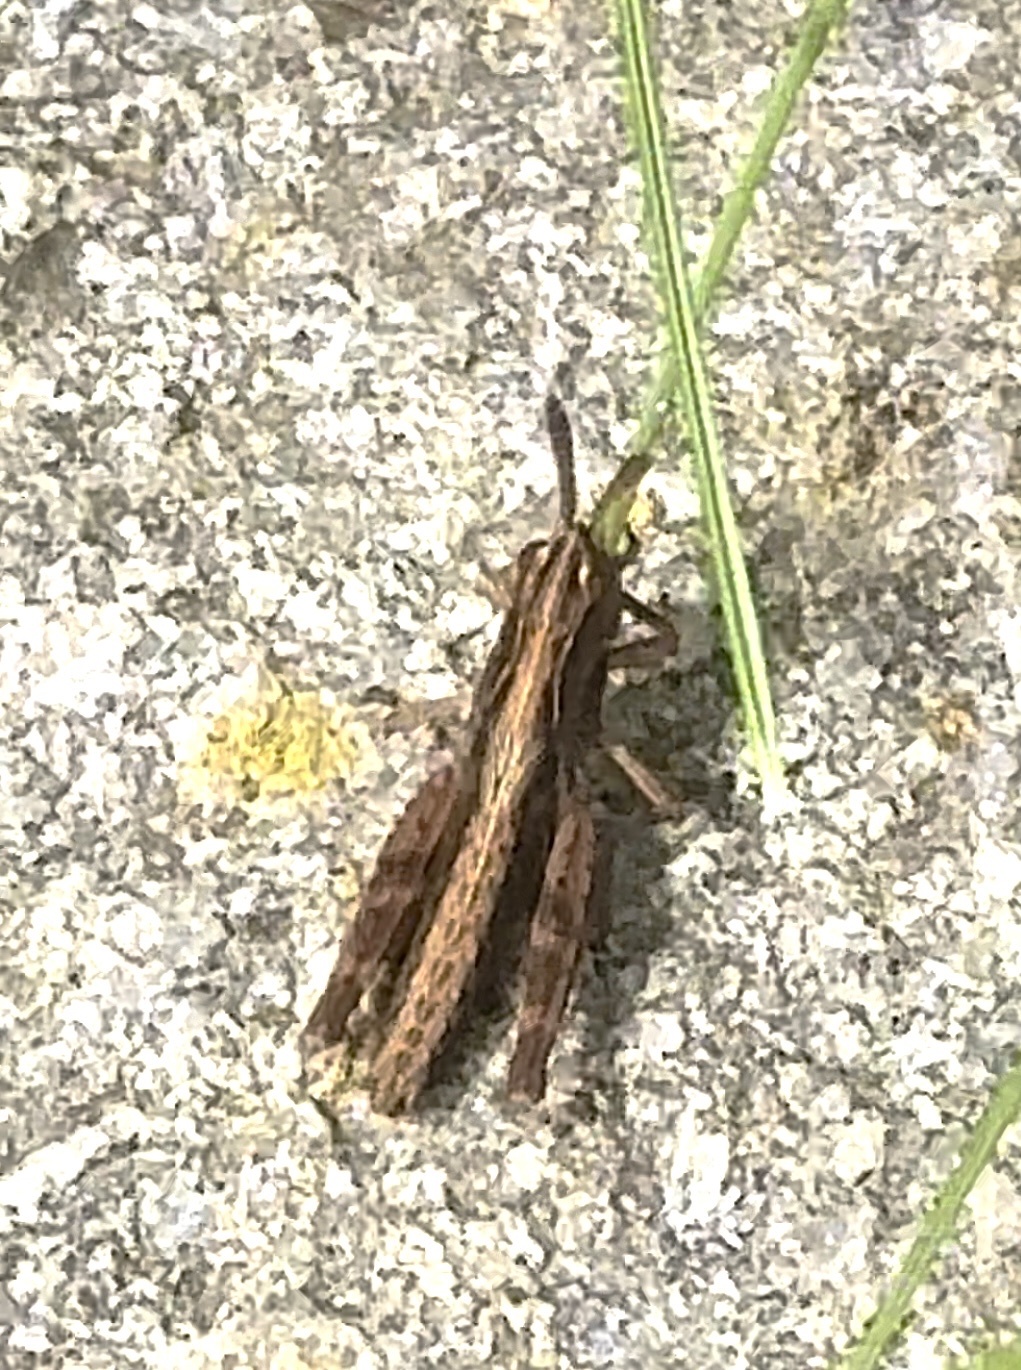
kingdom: Animalia
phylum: Arthropoda
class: Insecta
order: Orthoptera
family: Acrididae
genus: Gomphocerippus
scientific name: Gomphocerippus rufus
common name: Rufous grasshopper
